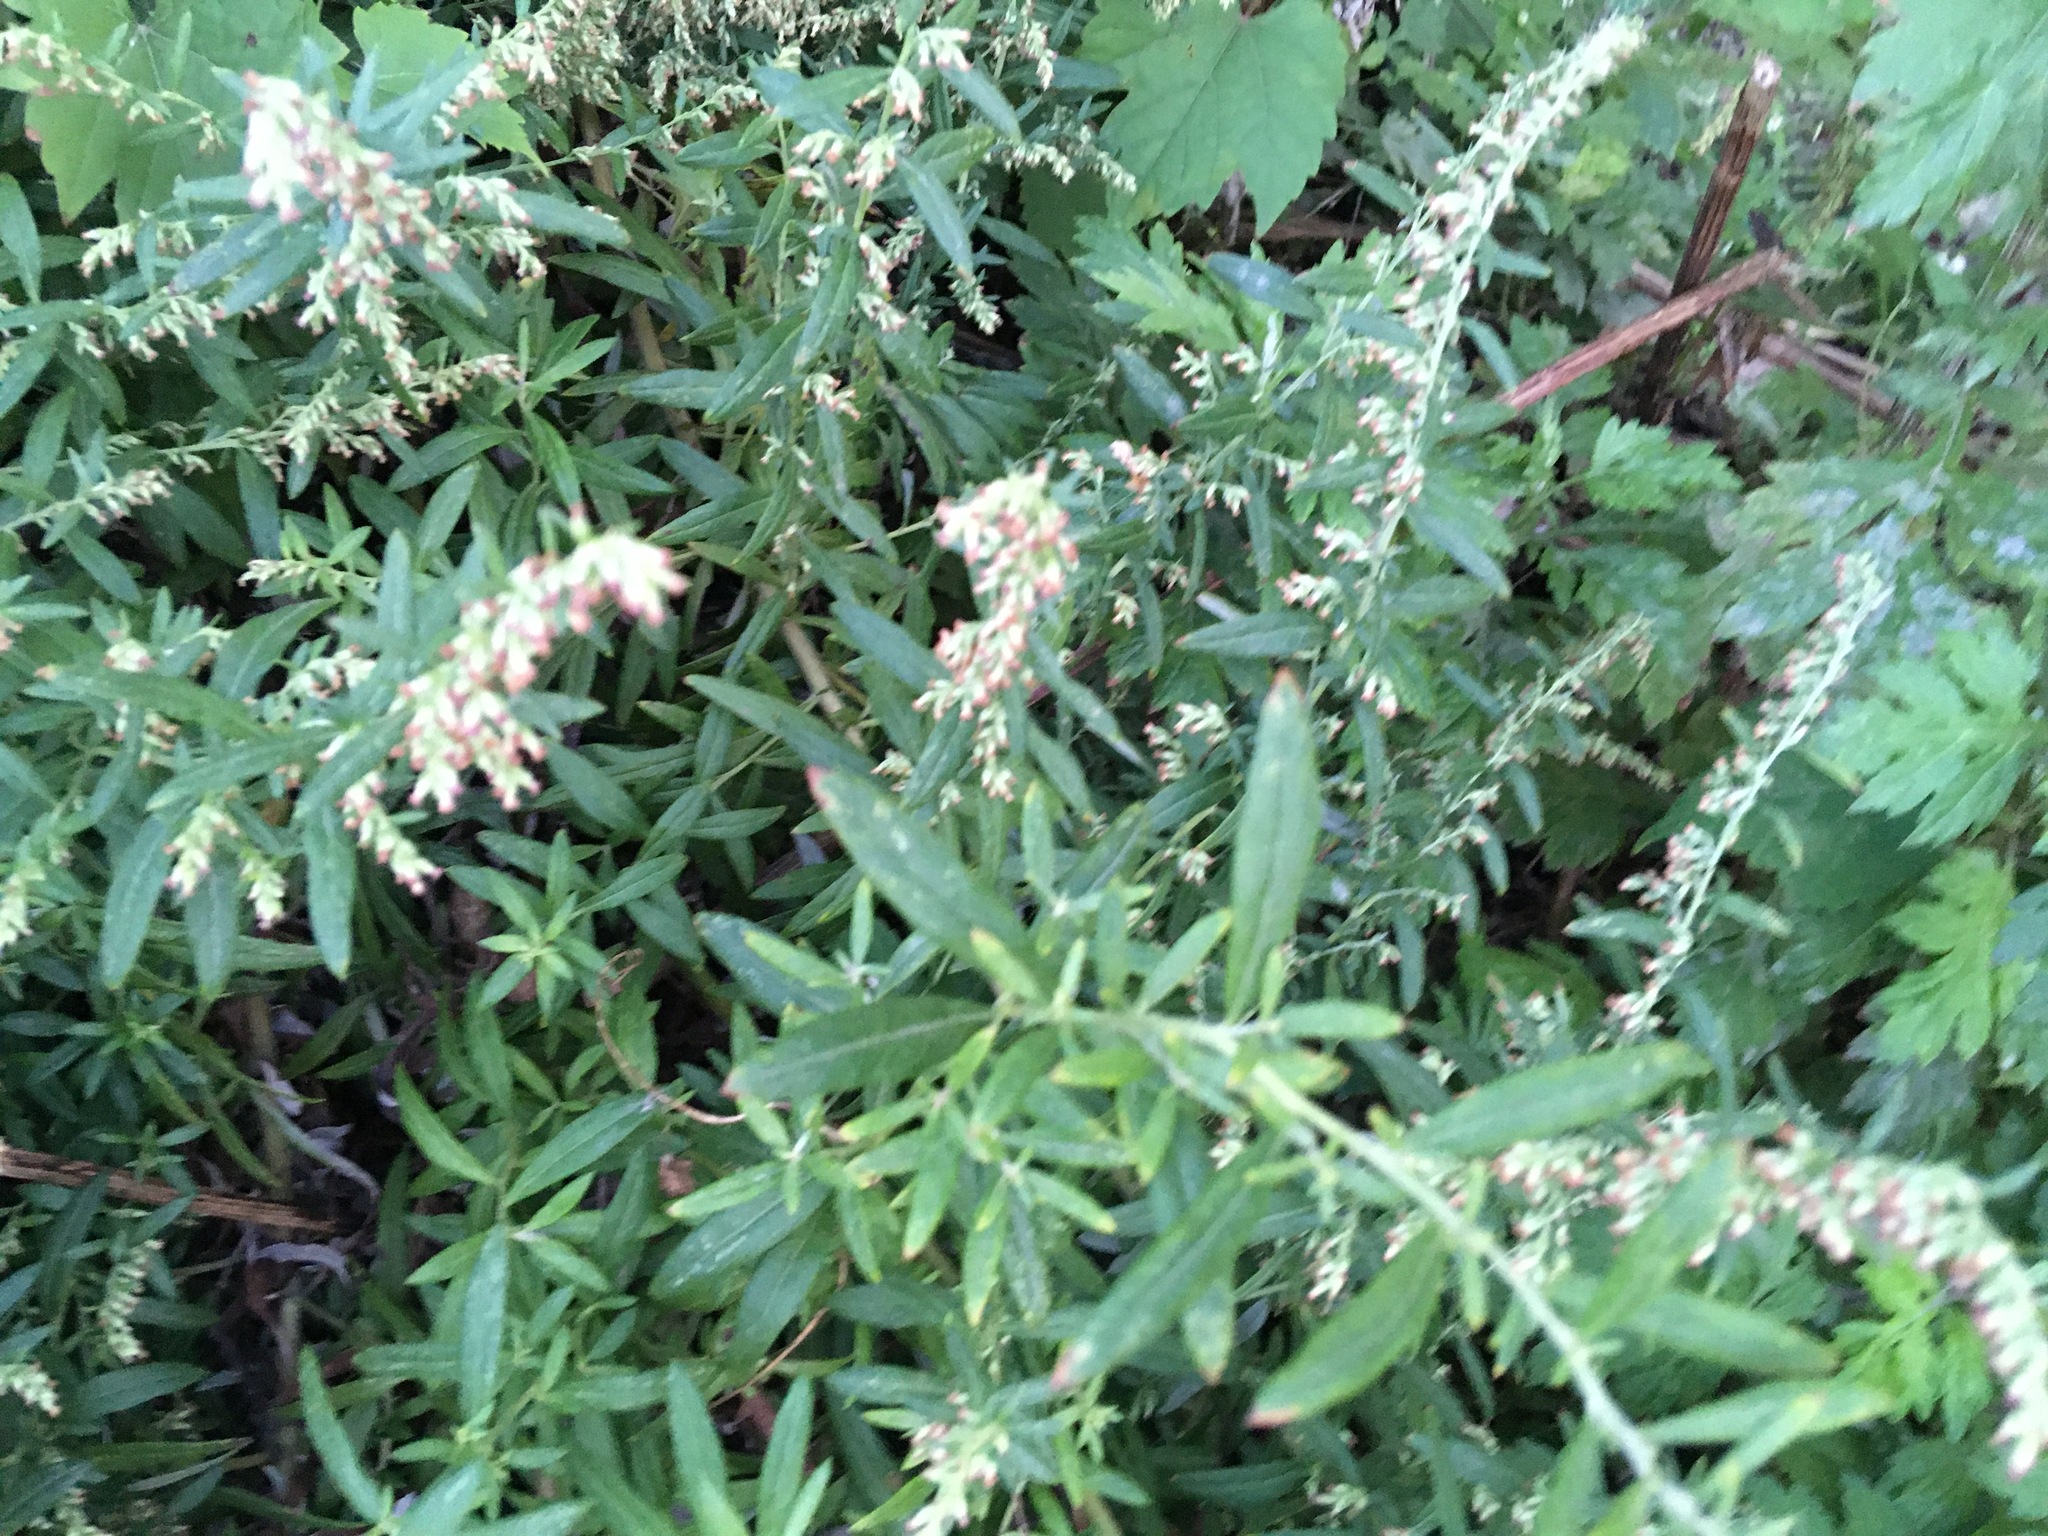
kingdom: Plantae
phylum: Tracheophyta
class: Magnoliopsida
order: Asterales
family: Asteraceae
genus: Artemisia
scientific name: Artemisia vulgaris
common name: Mugwort
